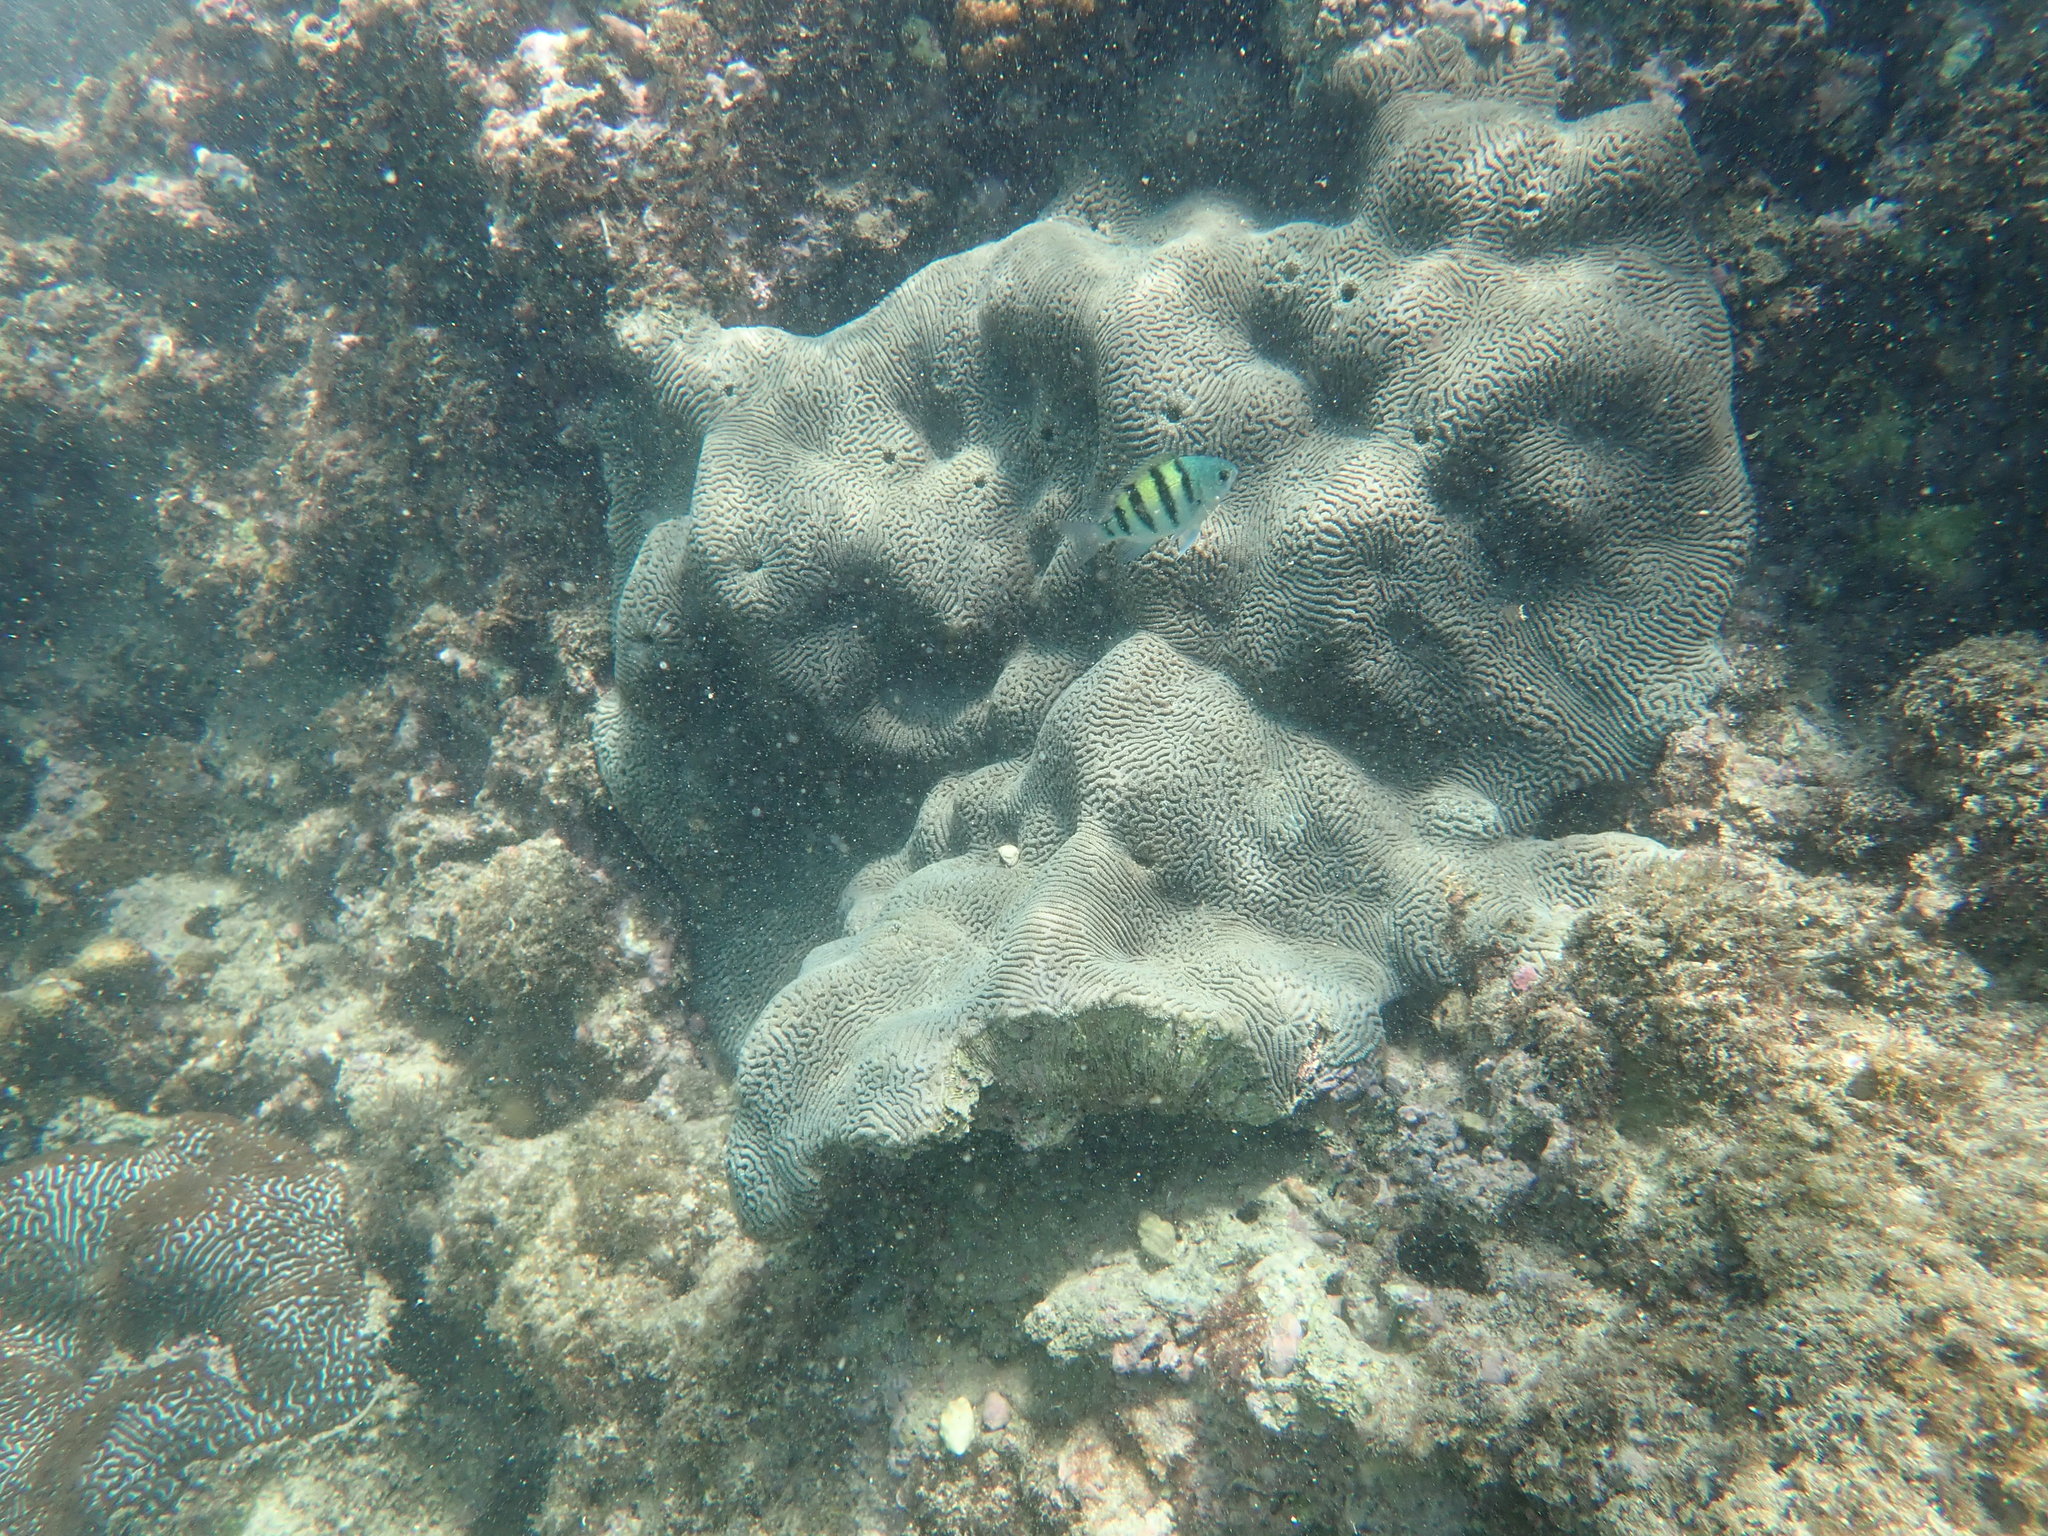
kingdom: Animalia
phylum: Chordata
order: Perciformes
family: Pomacentridae
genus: Abudefduf
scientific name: Abudefduf vaigiensis
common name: Indo-pacific sergeant
